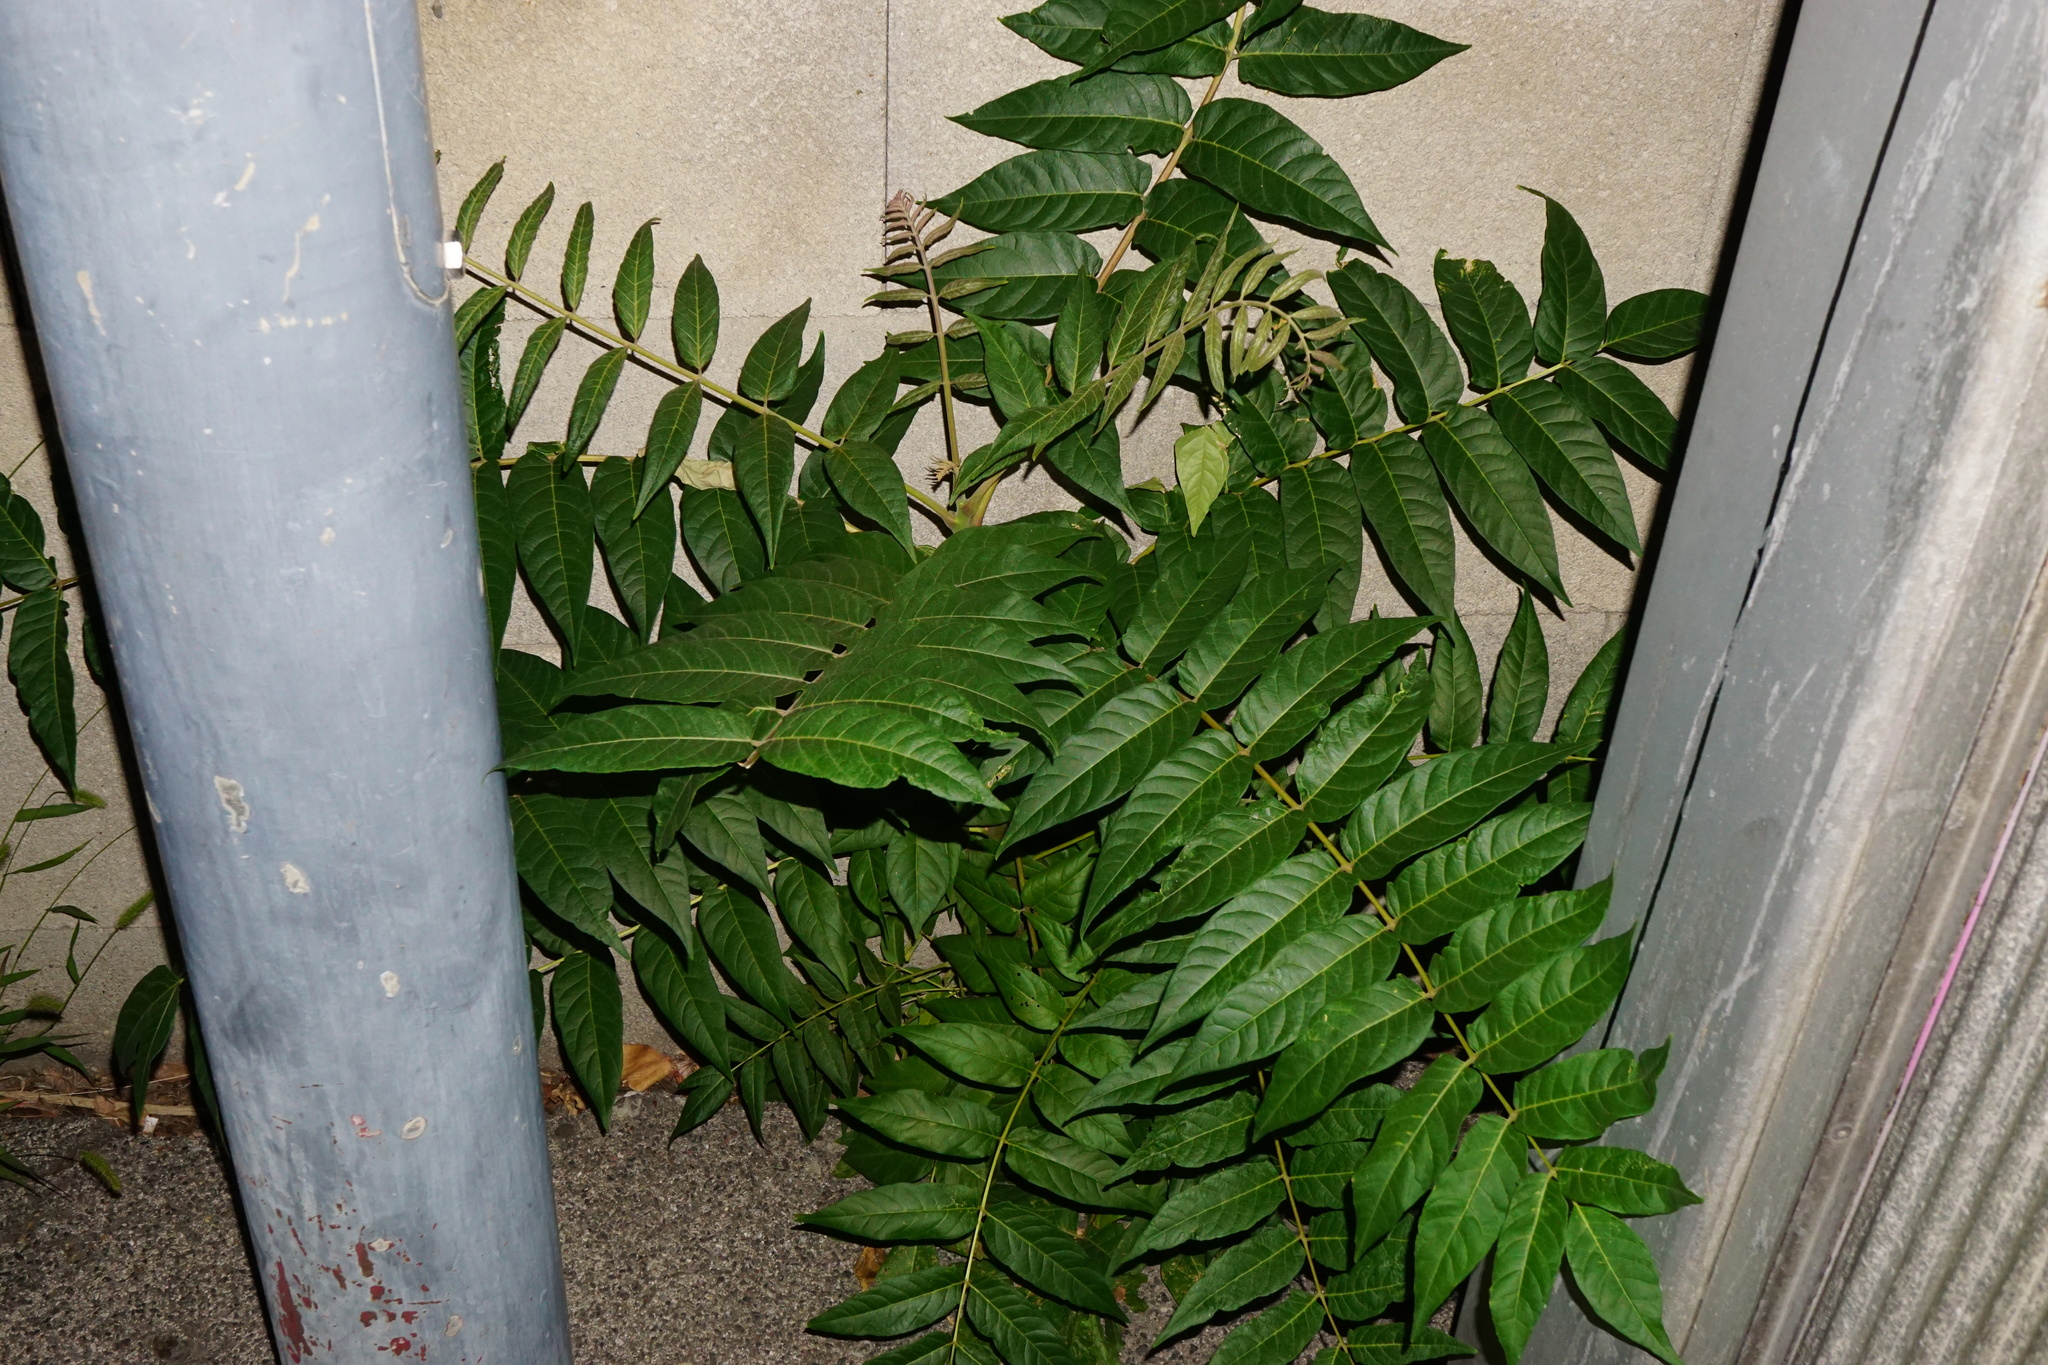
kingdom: Plantae
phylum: Tracheophyta
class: Magnoliopsida
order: Sapindales
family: Simaroubaceae
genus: Ailanthus
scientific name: Ailanthus altissima
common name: Tree-of-heaven
